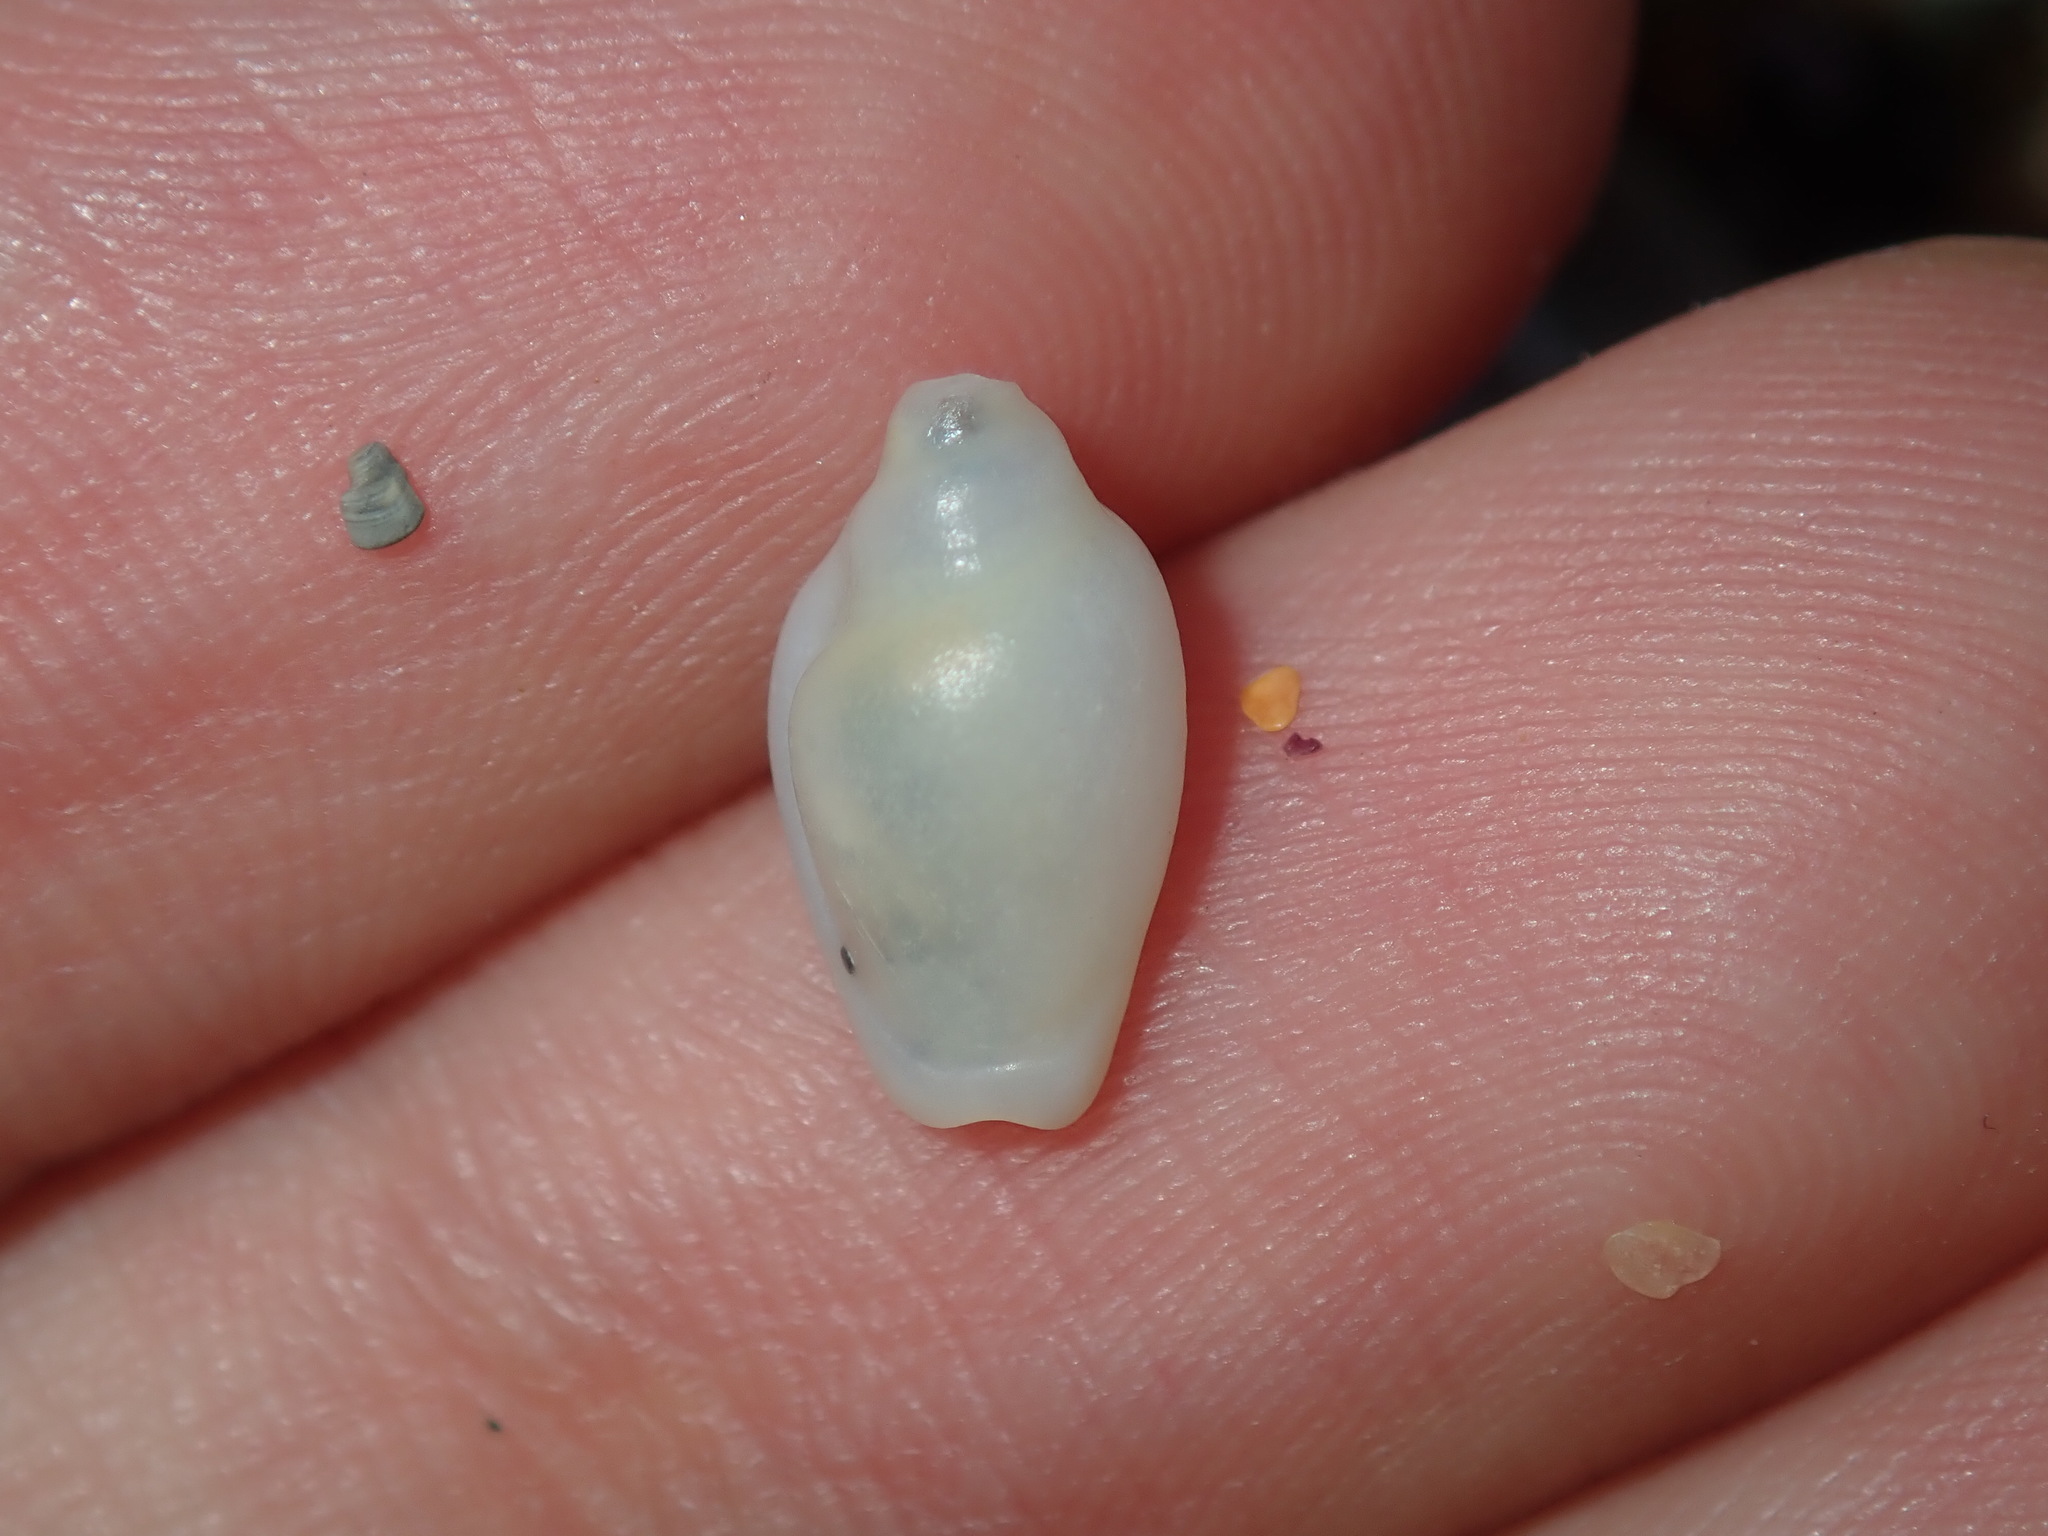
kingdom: Animalia
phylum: Mollusca
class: Gastropoda
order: Neogastropoda
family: Marginellidae
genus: Austroginella
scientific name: Austroginella muscaria
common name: Fly marginella
